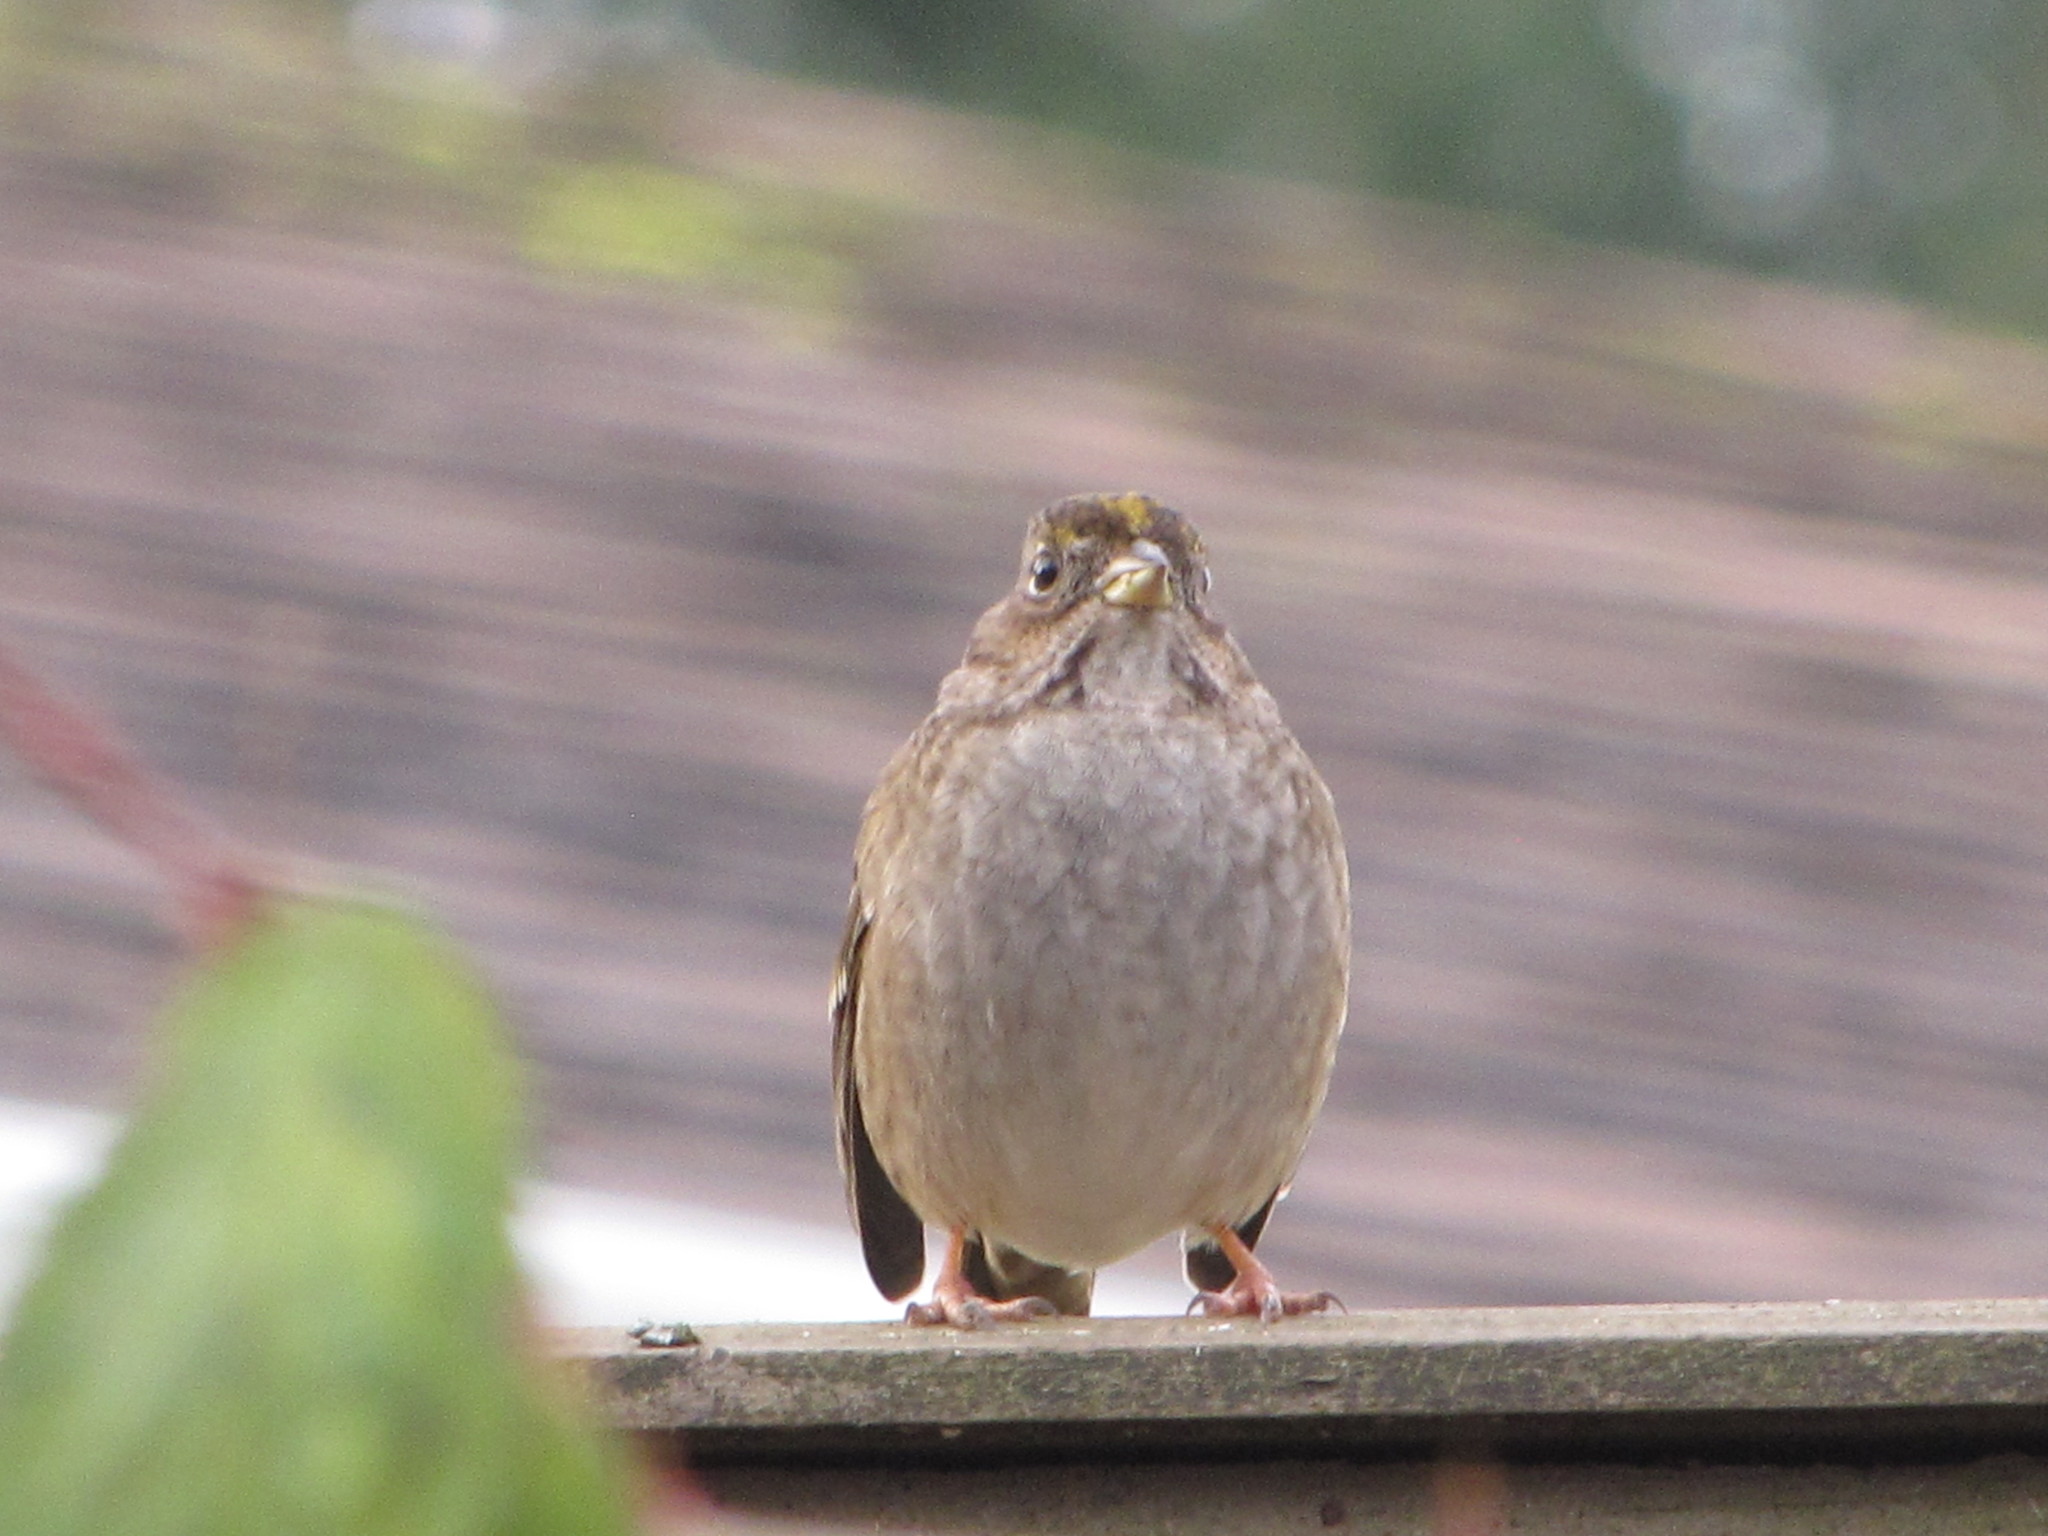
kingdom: Animalia
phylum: Chordata
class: Aves
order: Passeriformes
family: Passerellidae
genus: Zonotrichia
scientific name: Zonotrichia atricapilla
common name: Golden-crowned sparrow
